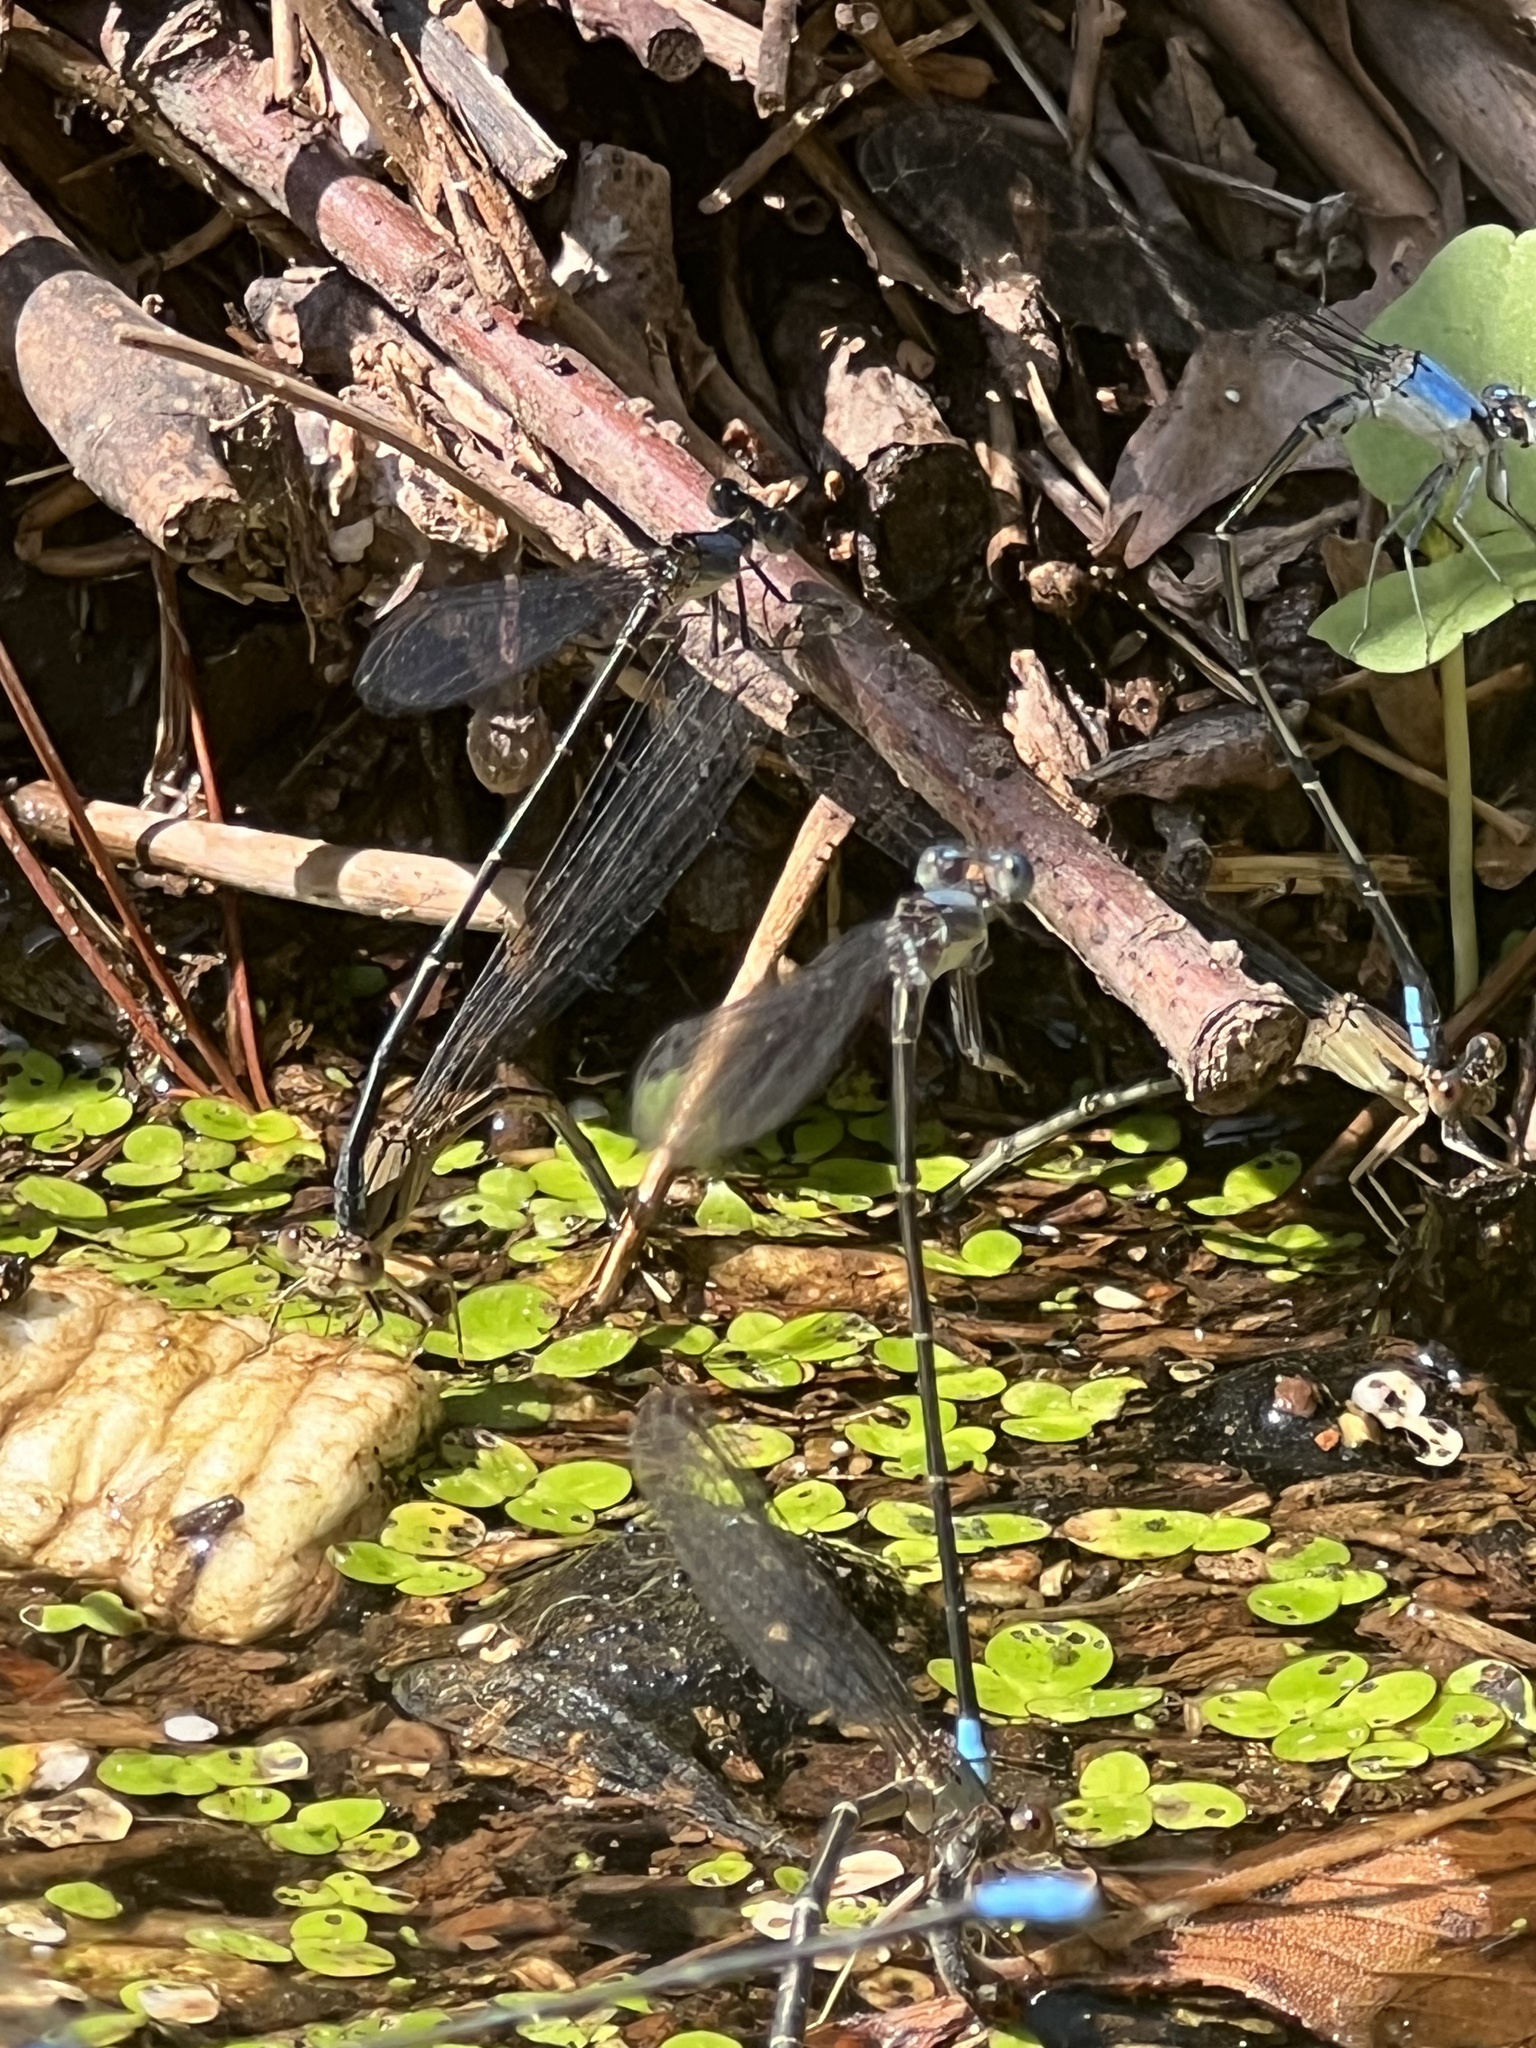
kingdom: Animalia
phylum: Arthropoda
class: Insecta
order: Odonata
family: Coenagrionidae
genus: Argia
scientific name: Argia apicalis
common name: Blue-fronted dancer
